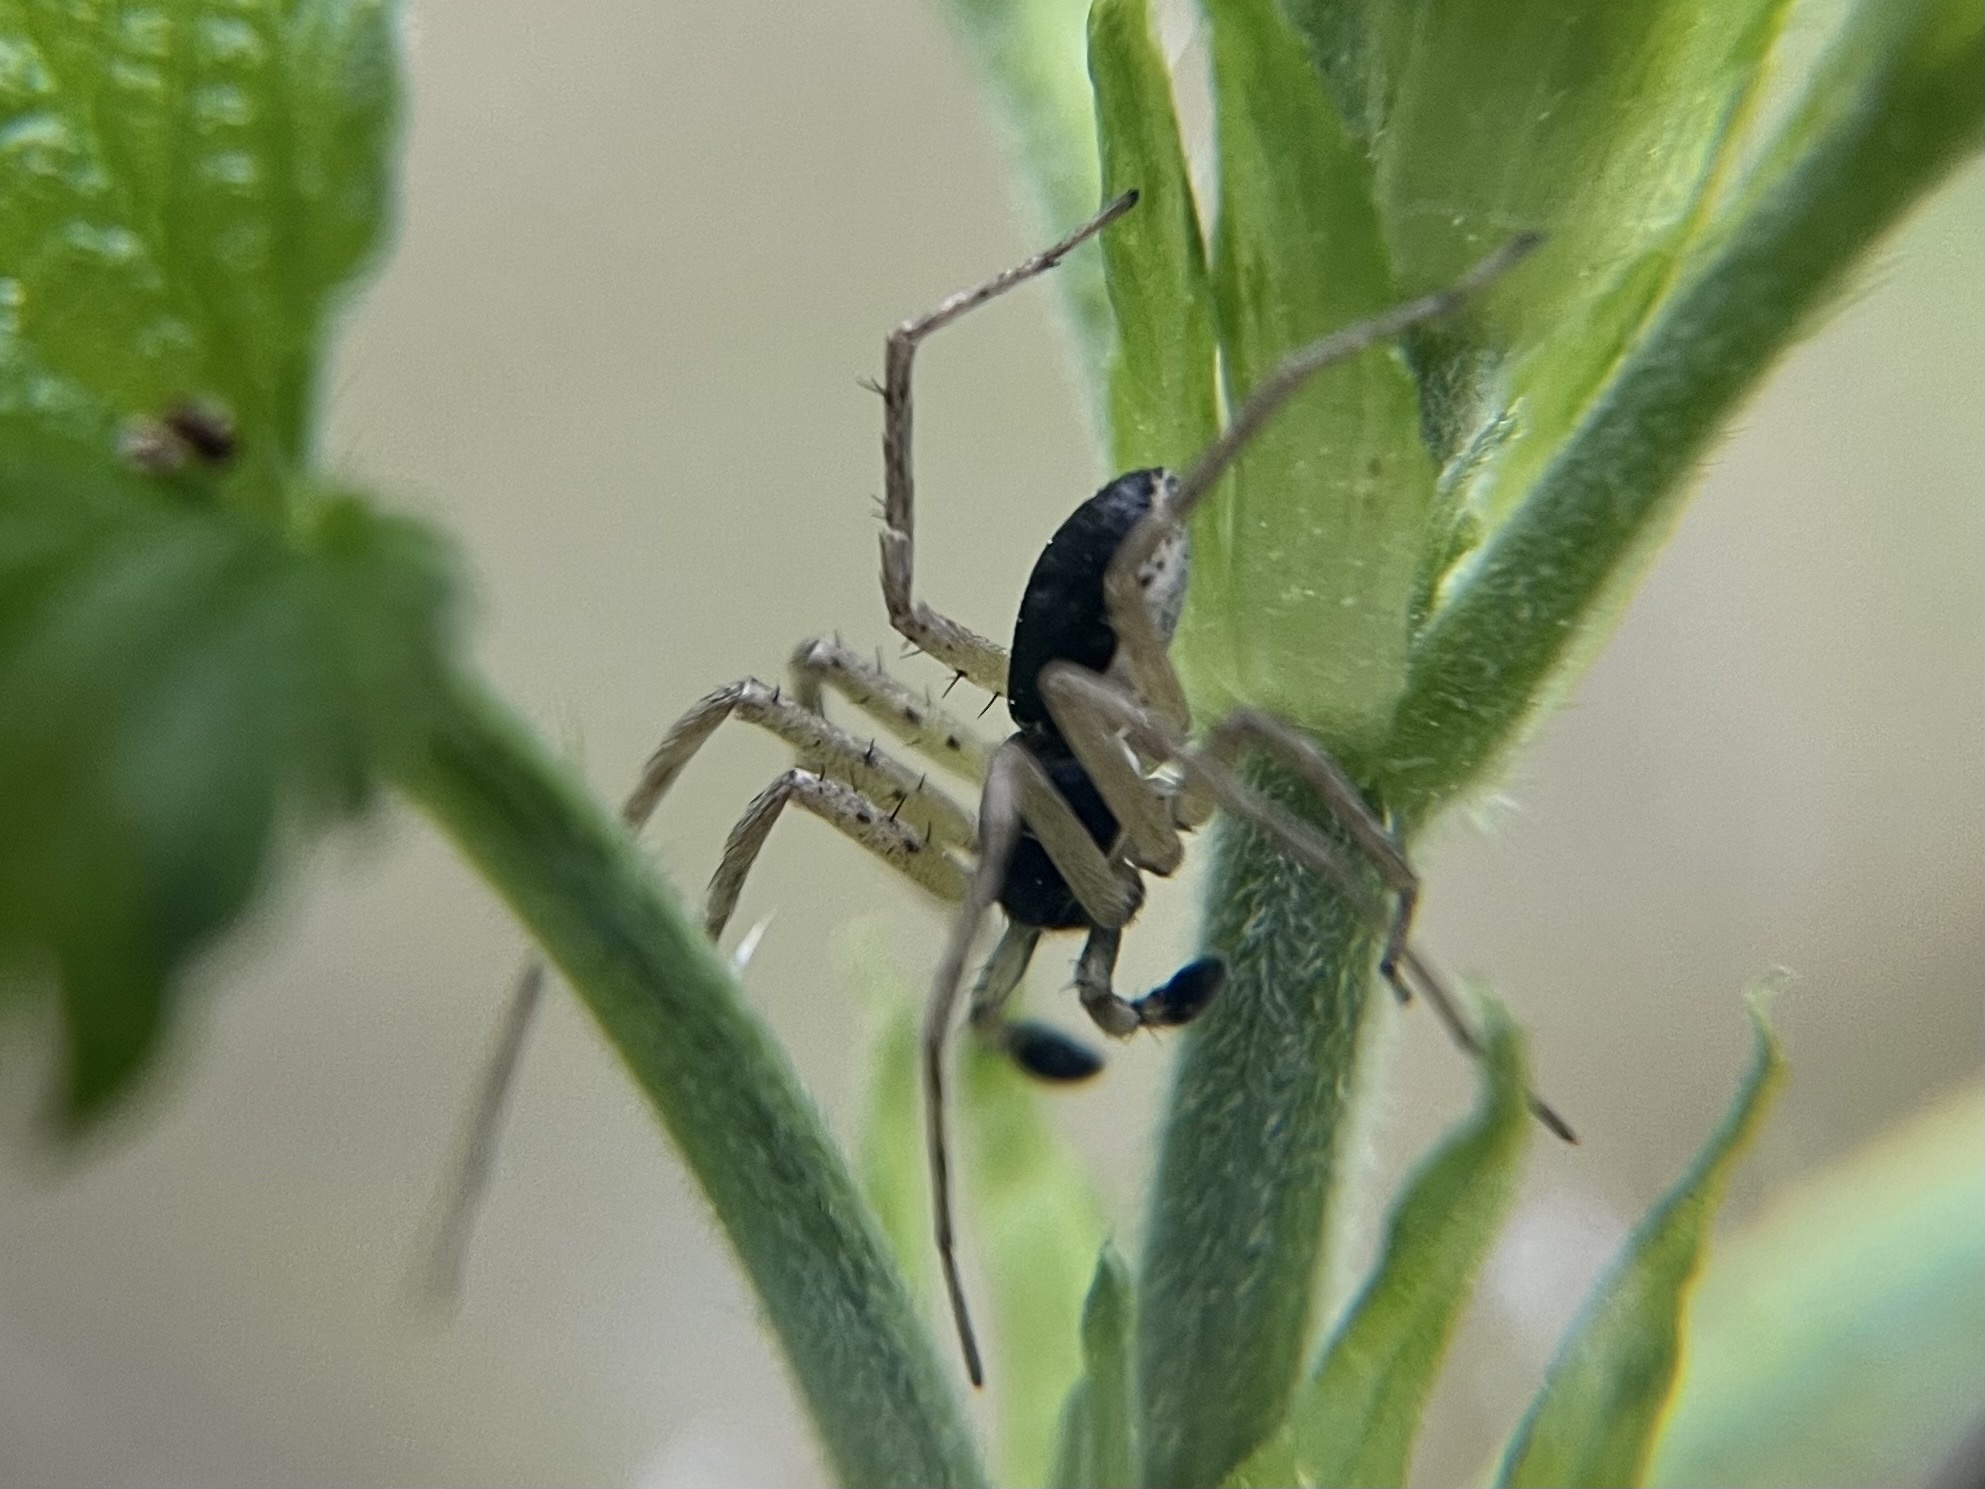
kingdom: Animalia
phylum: Arthropoda
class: Arachnida
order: Araneae
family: Philodromidae
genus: Philodromus
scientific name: Philodromus dispar
